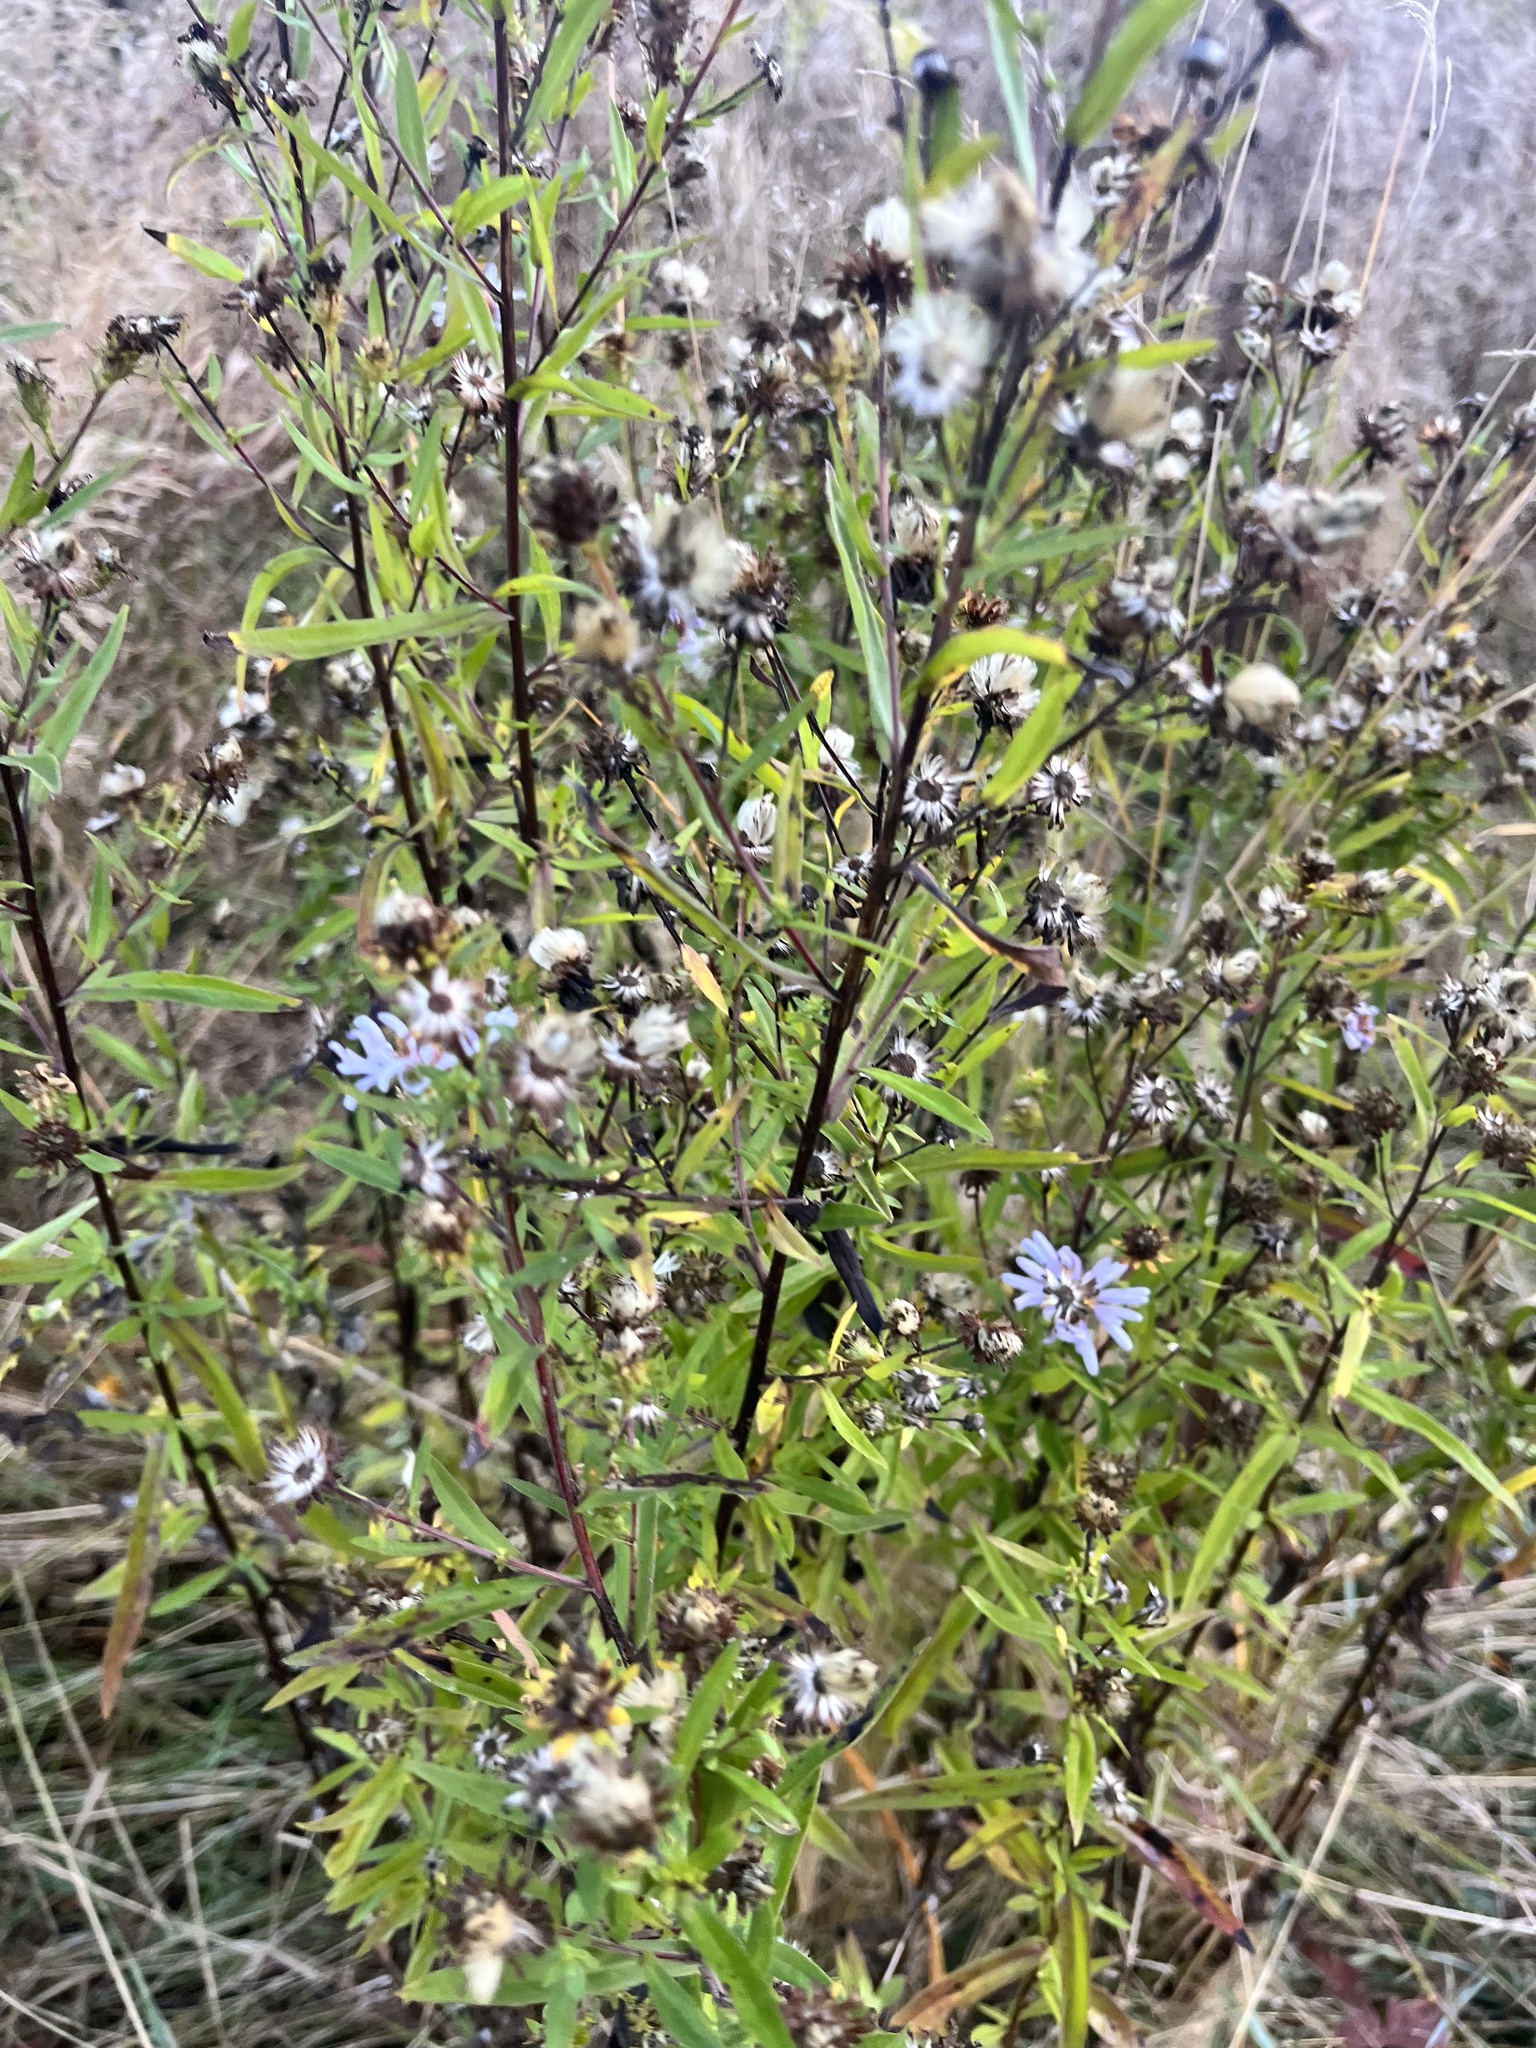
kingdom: Plantae
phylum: Tracheophyta
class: Magnoliopsida
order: Asterales
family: Asteraceae
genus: Symphyotrichum
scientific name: Symphyotrichum subspicatum
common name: Douglas' aster
